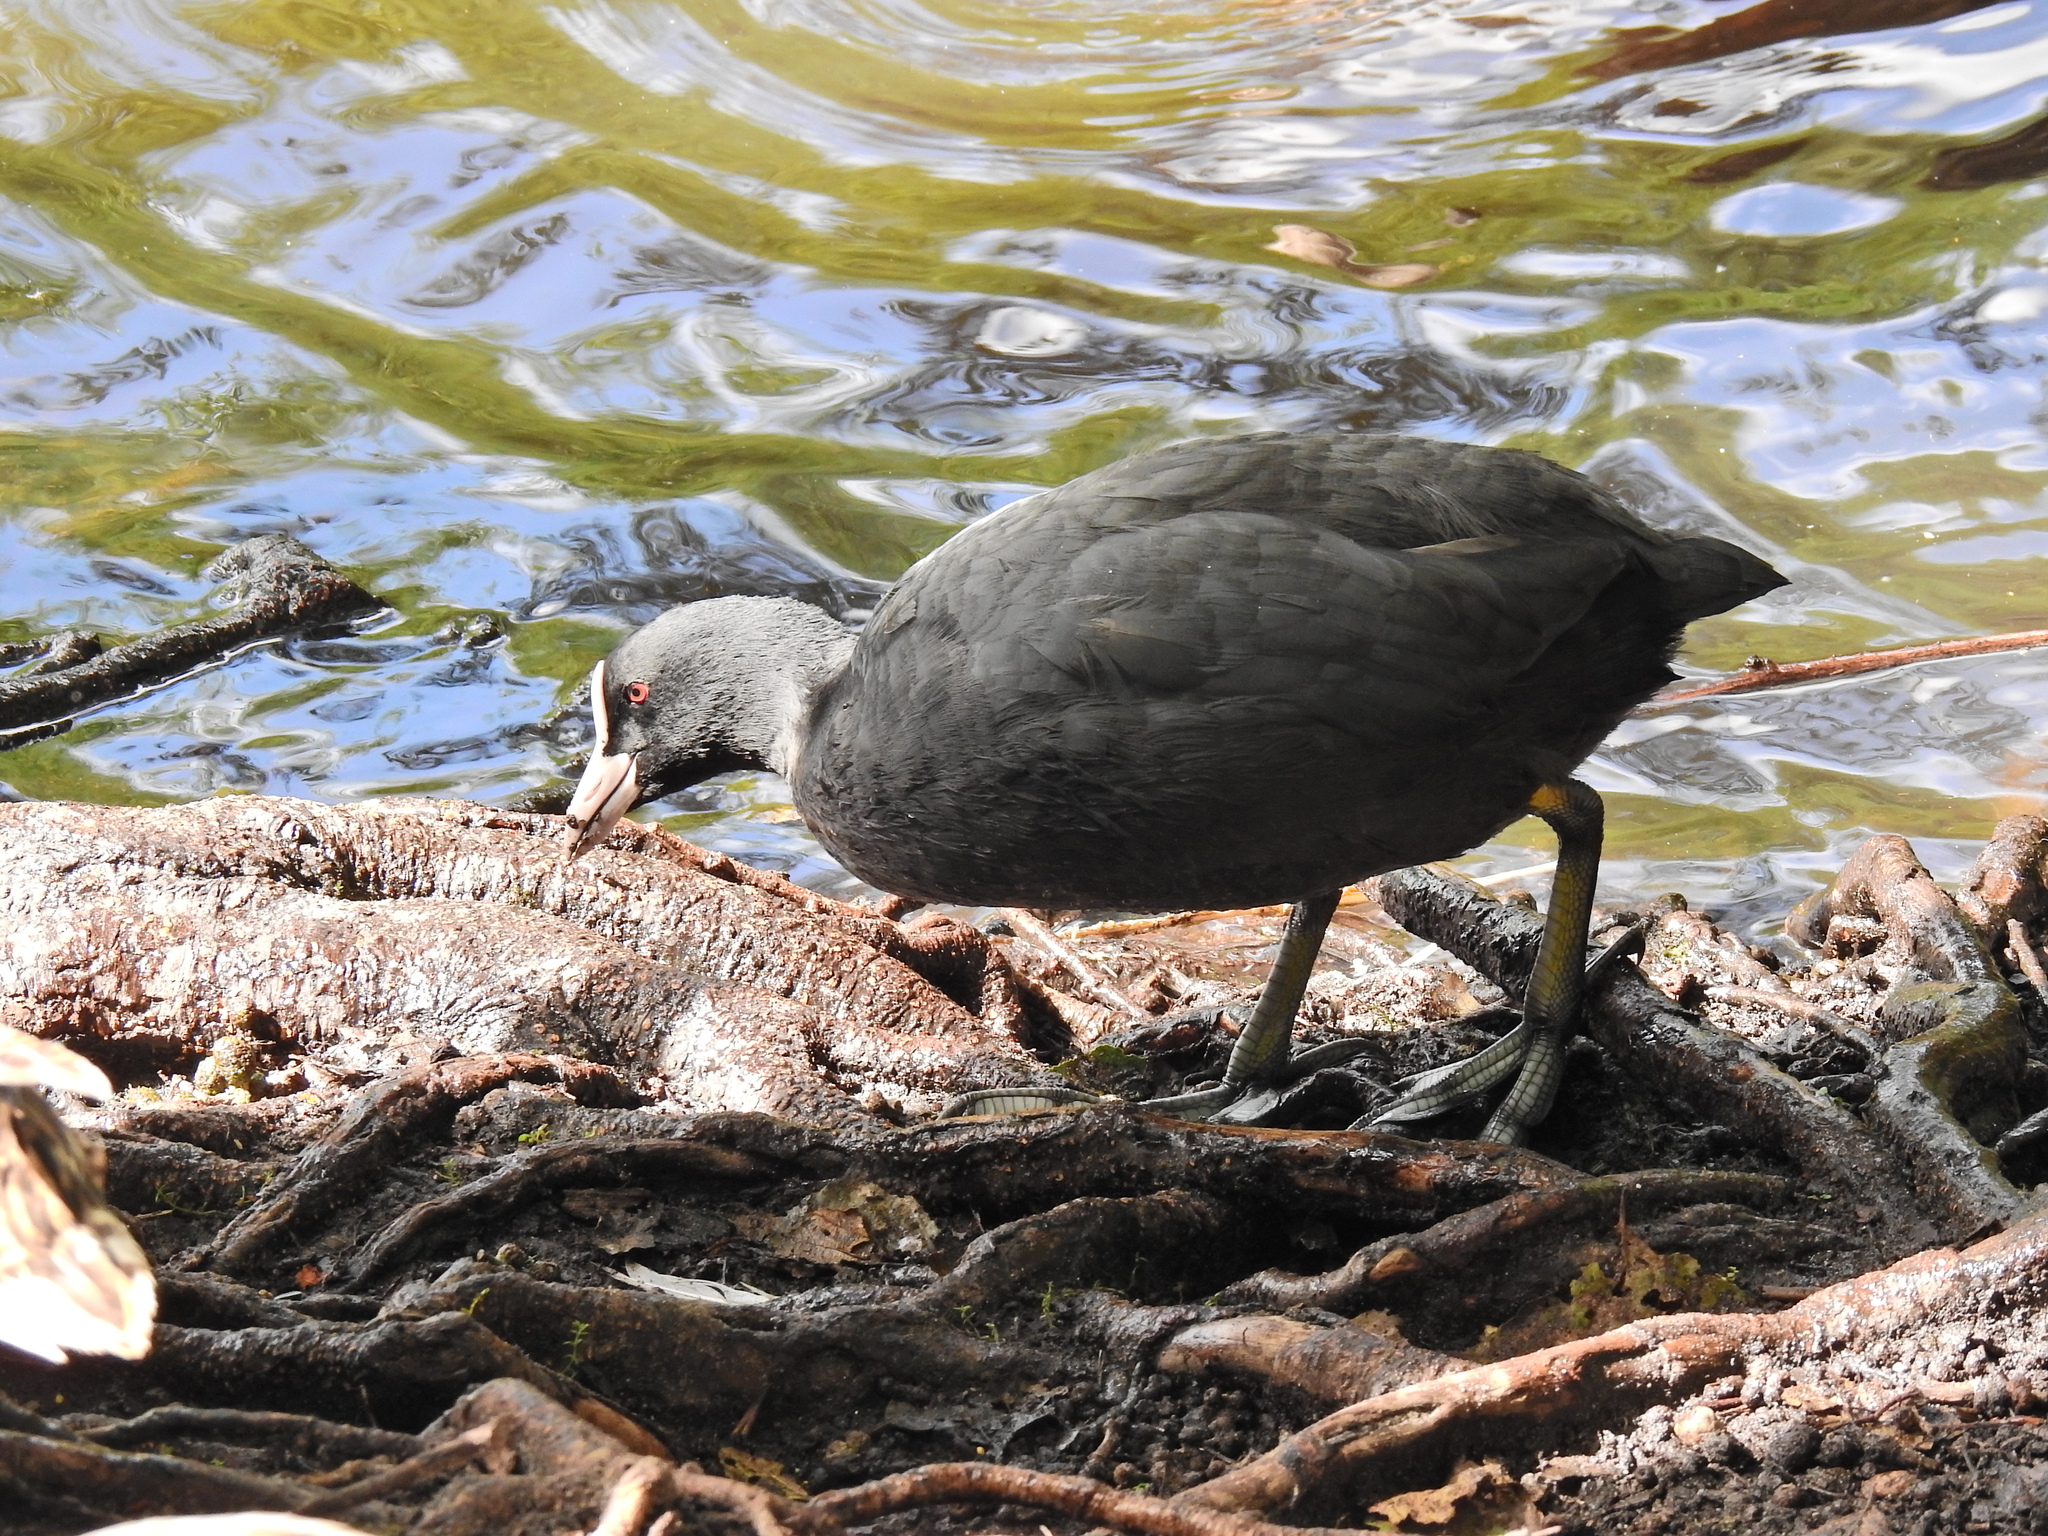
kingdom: Animalia
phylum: Chordata
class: Aves
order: Gruiformes
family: Rallidae
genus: Fulica
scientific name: Fulica atra
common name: Eurasian coot
